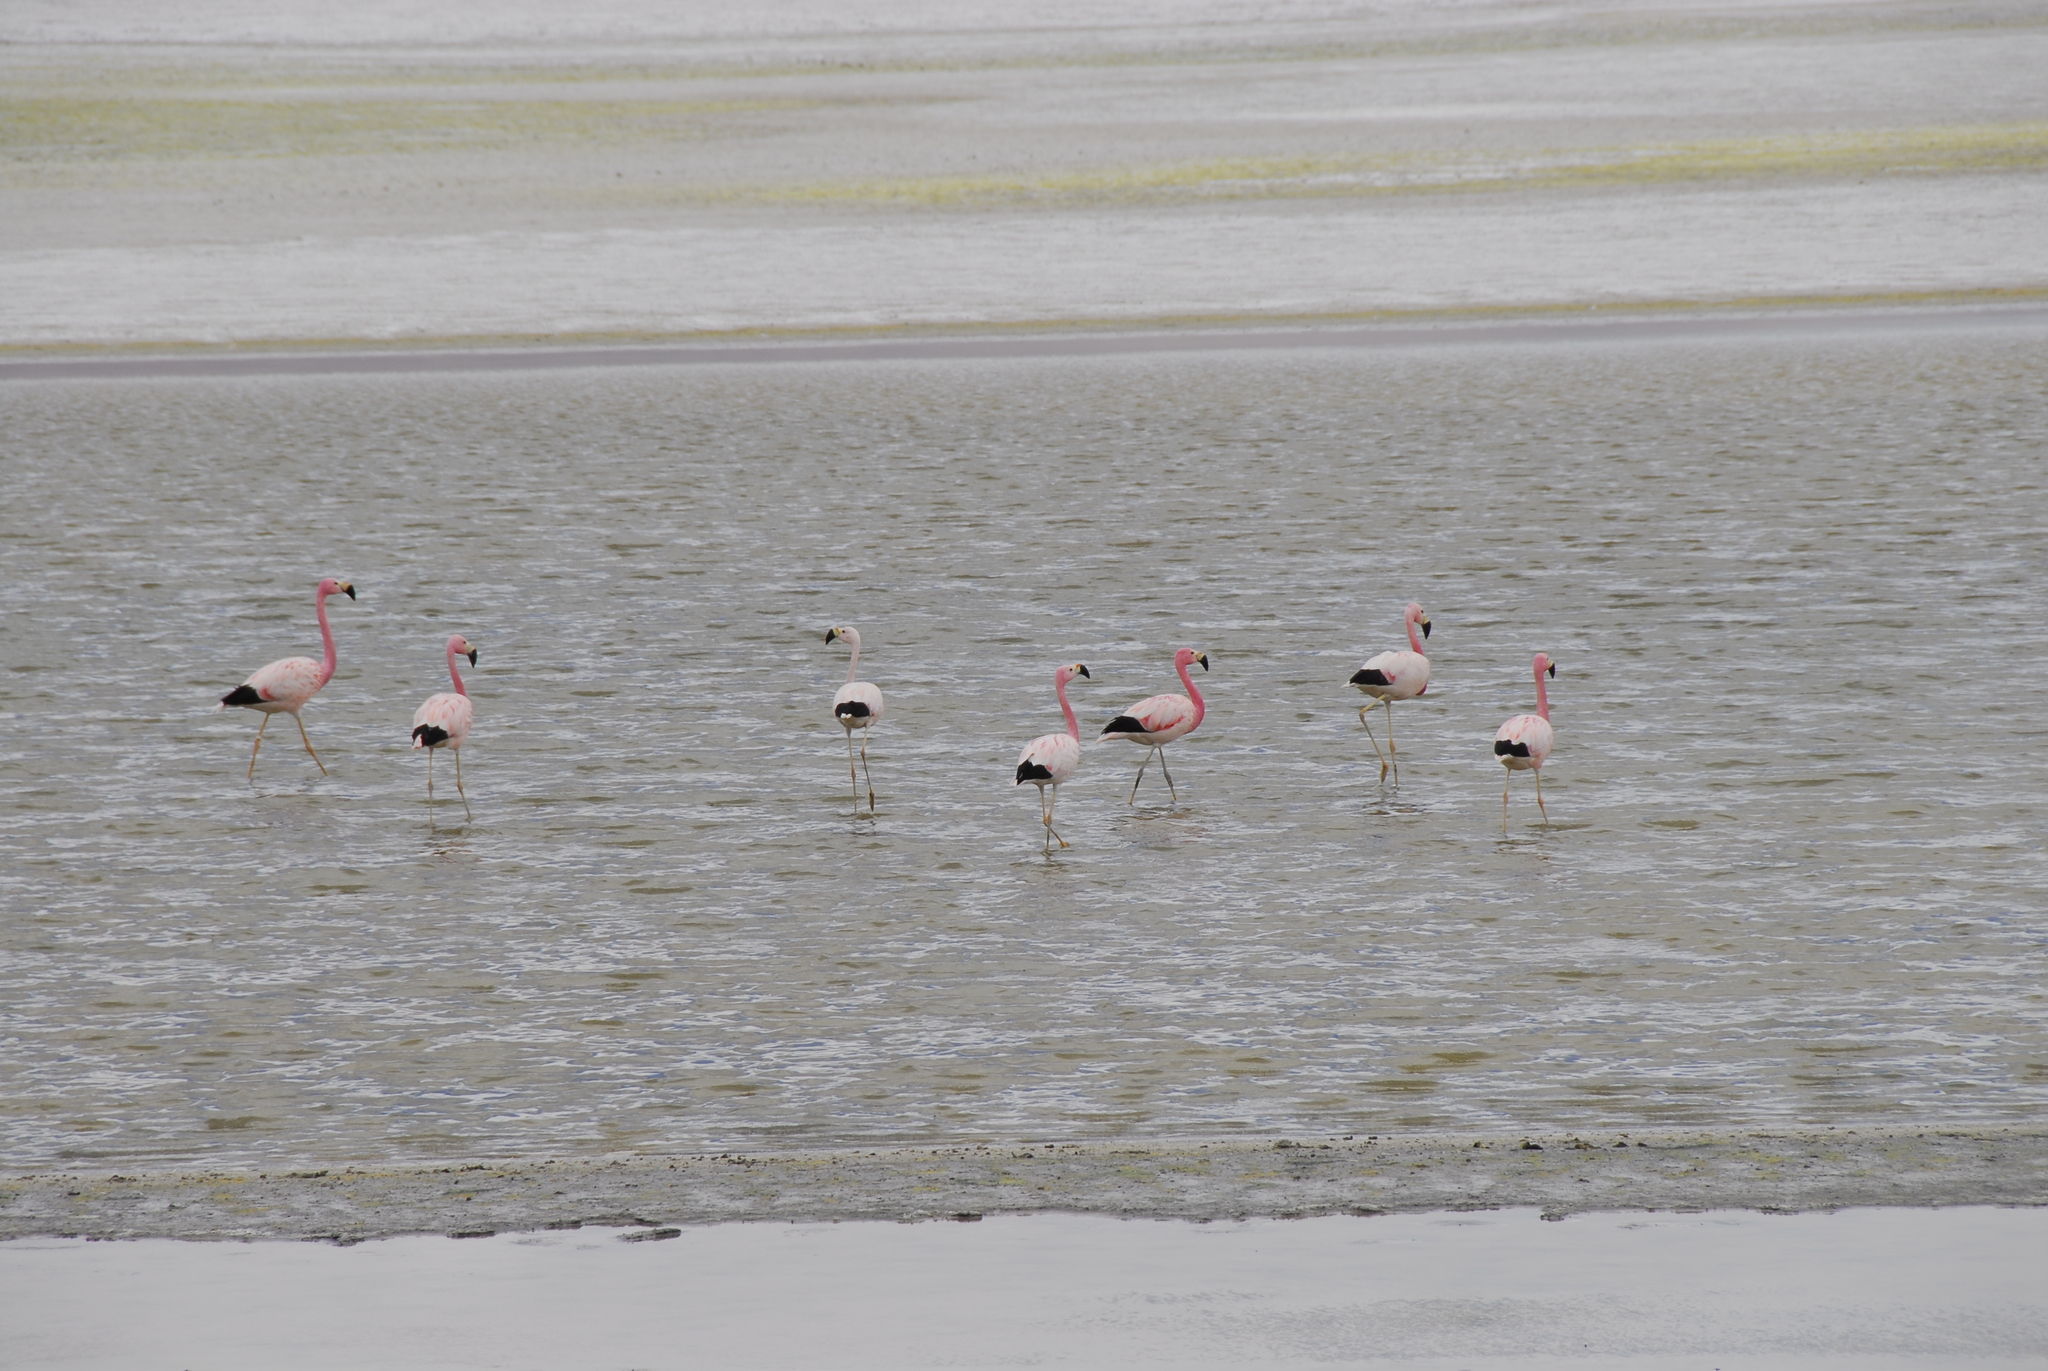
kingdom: Animalia
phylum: Chordata
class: Aves
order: Phoenicopteriformes
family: Phoenicopteridae
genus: Phoenicoparrus
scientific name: Phoenicoparrus andinus
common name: Andean flamingo
